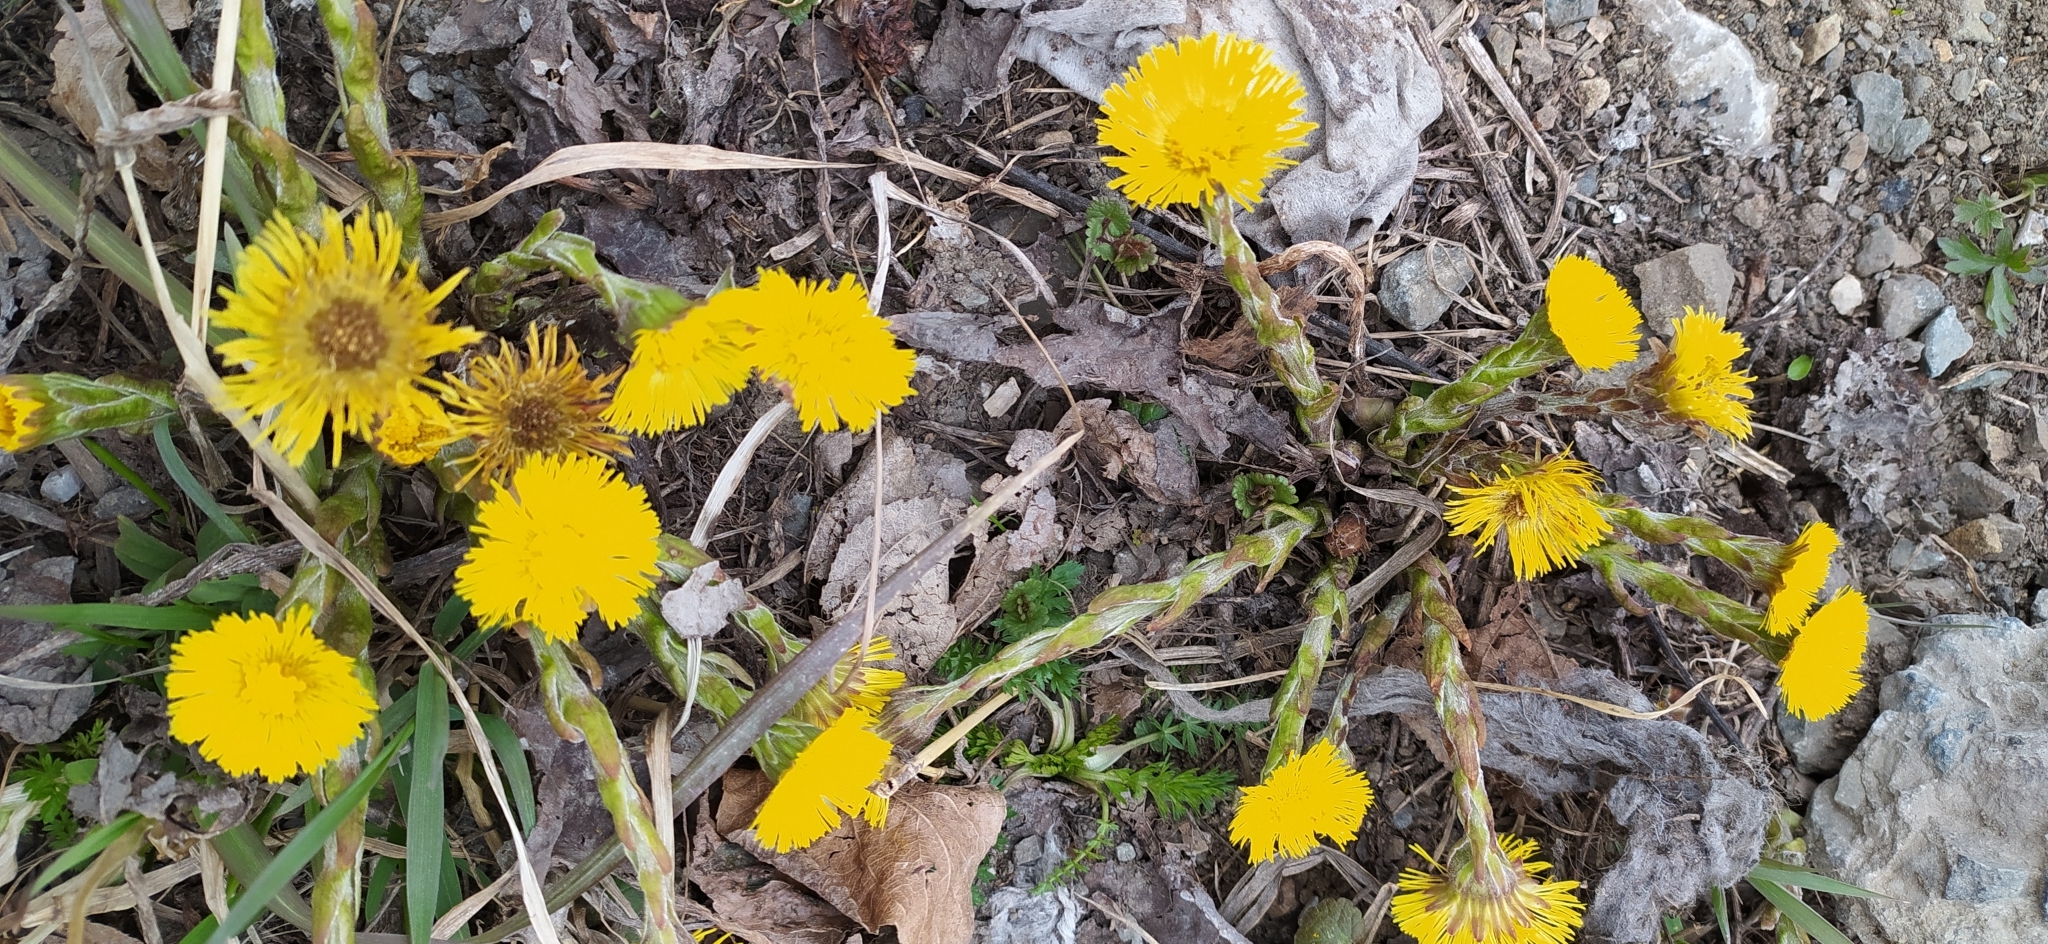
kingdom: Plantae
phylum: Tracheophyta
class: Magnoliopsida
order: Asterales
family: Asteraceae
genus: Tussilago
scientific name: Tussilago farfara
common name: Coltsfoot
